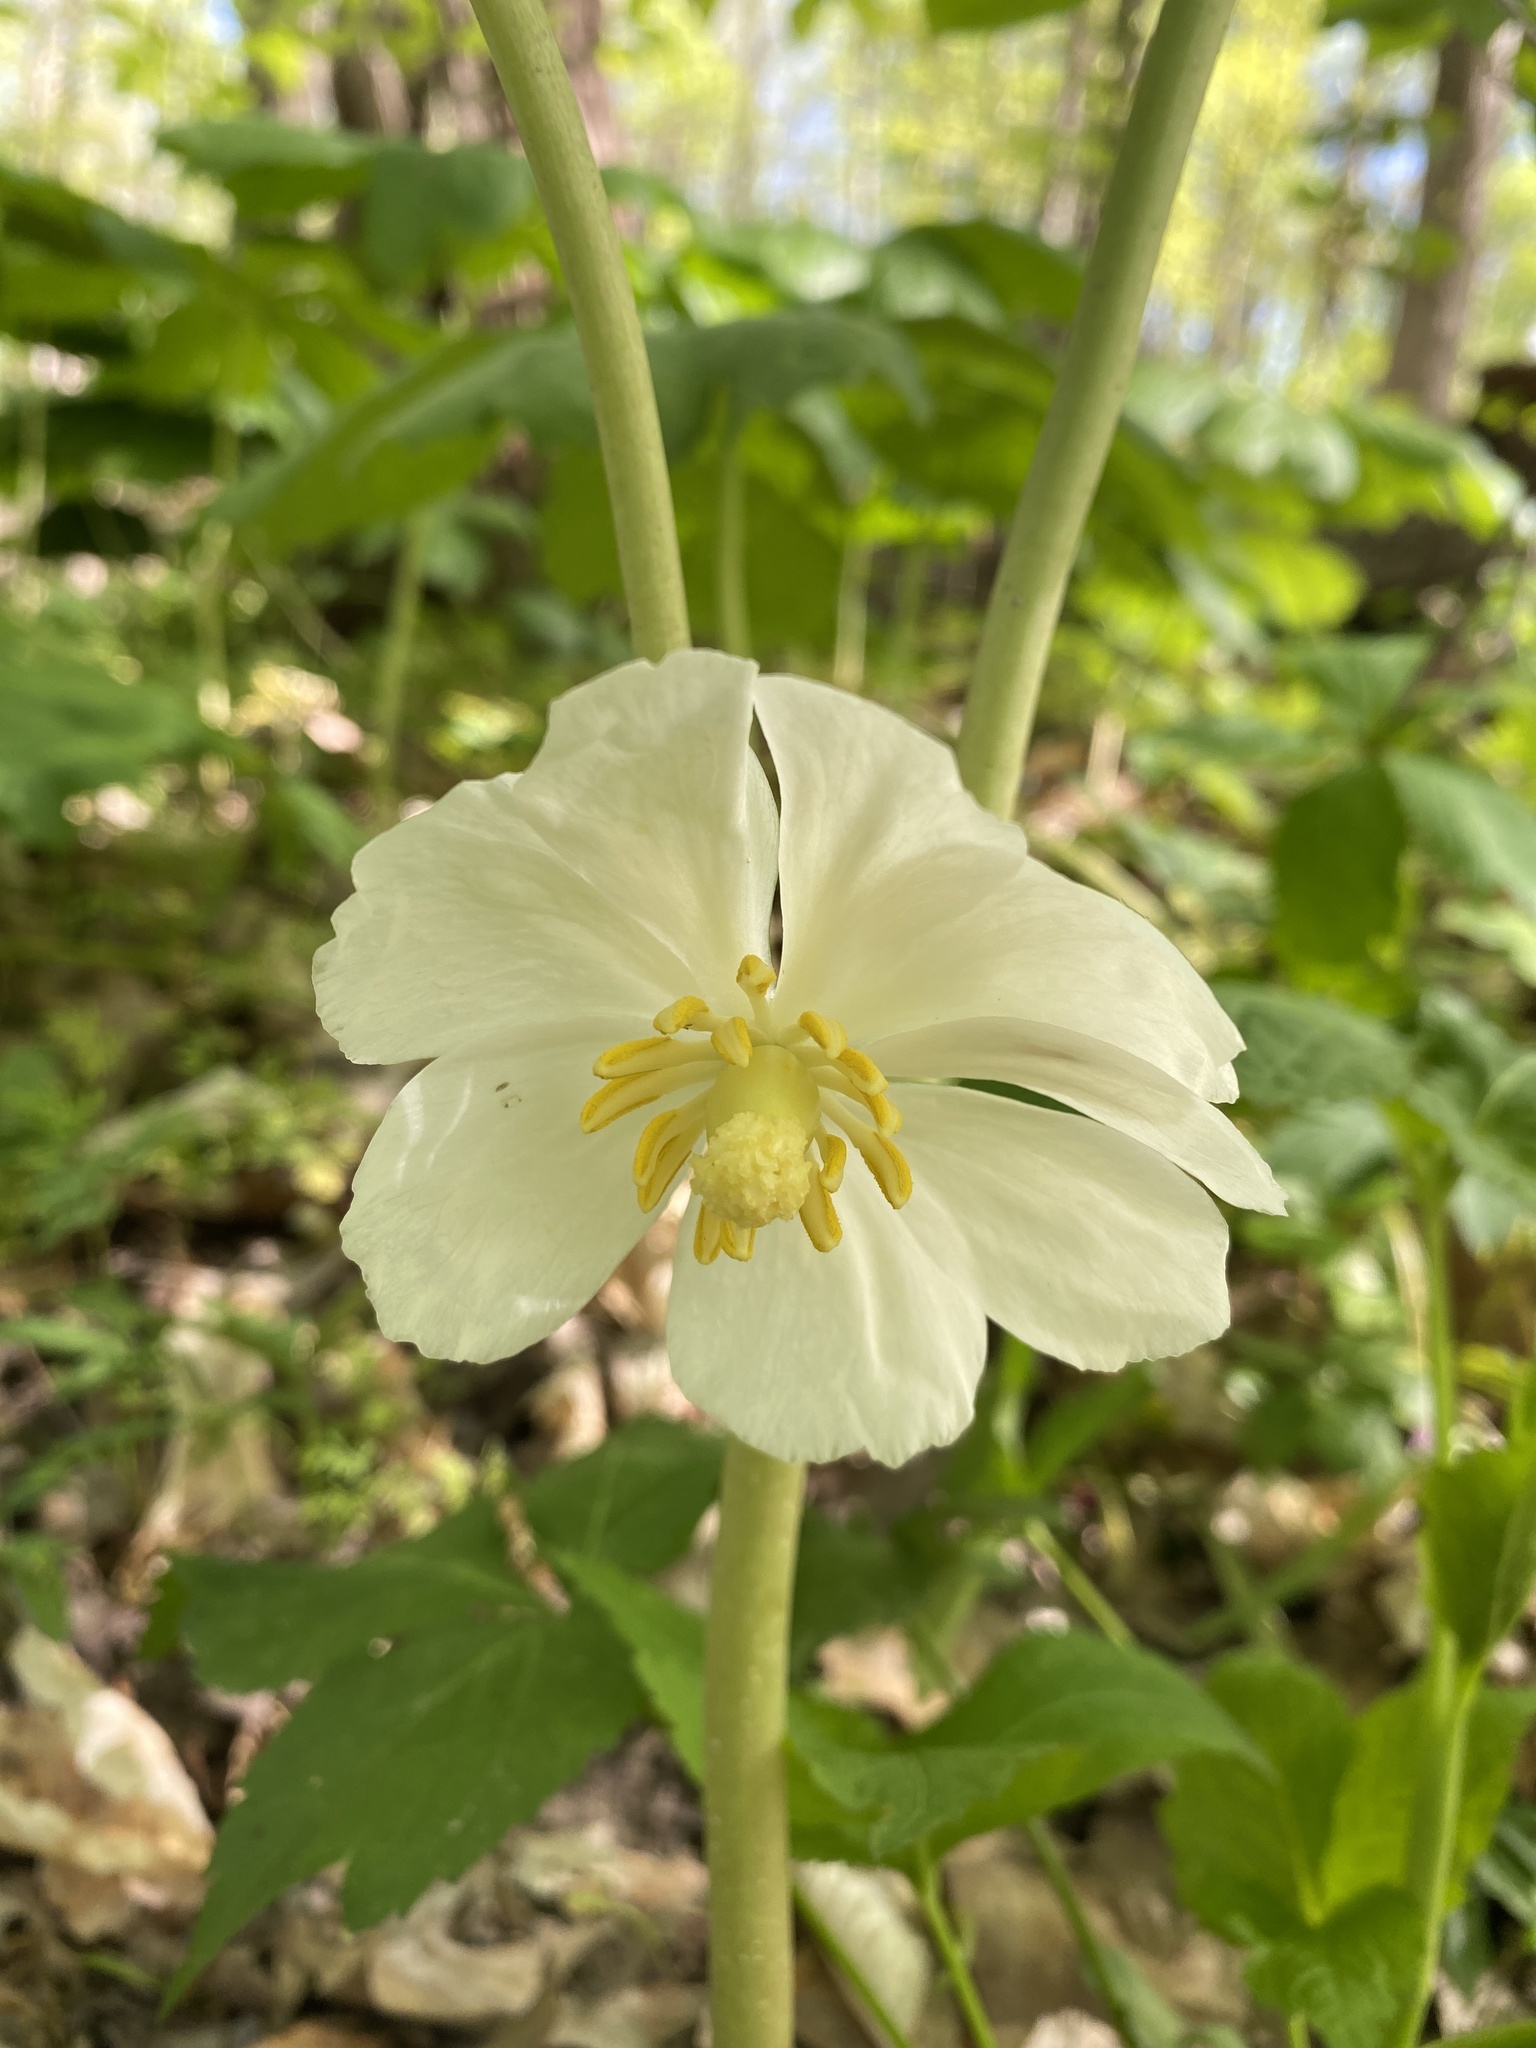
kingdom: Plantae
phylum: Tracheophyta
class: Magnoliopsida
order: Ranunculales
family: Berberidaceae
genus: Podophyllum
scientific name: Podophyllum peltatum
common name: Wild mandrake
